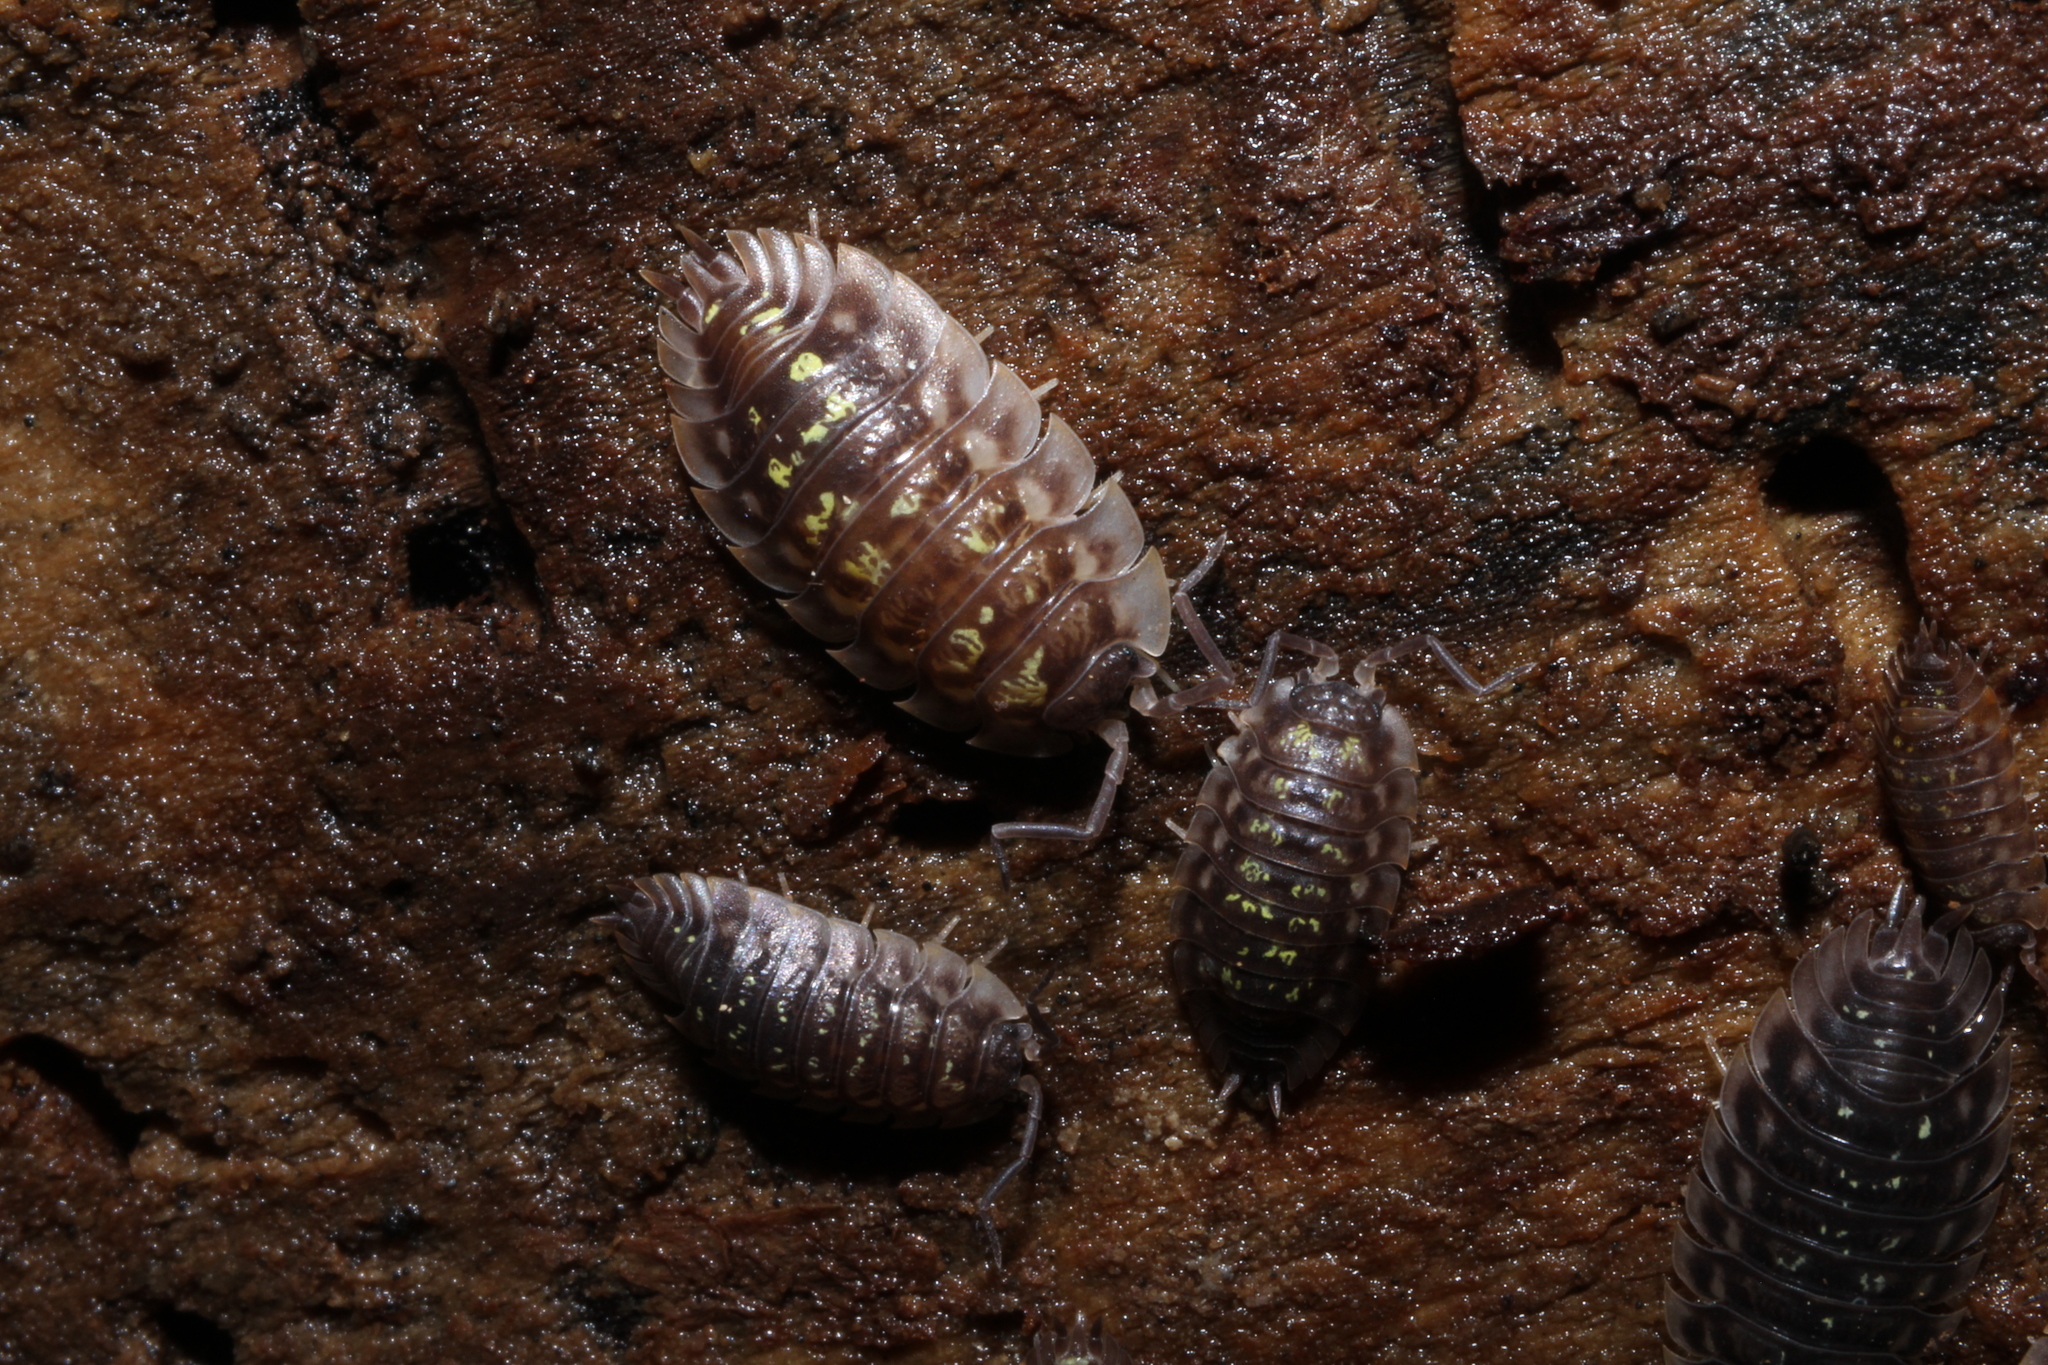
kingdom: Animalia
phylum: Arthropoda
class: Malacostraca
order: Isopoda
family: Oniscidae
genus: Oniscus
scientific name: Oniscus asellus
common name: Common shiny woodlouse
